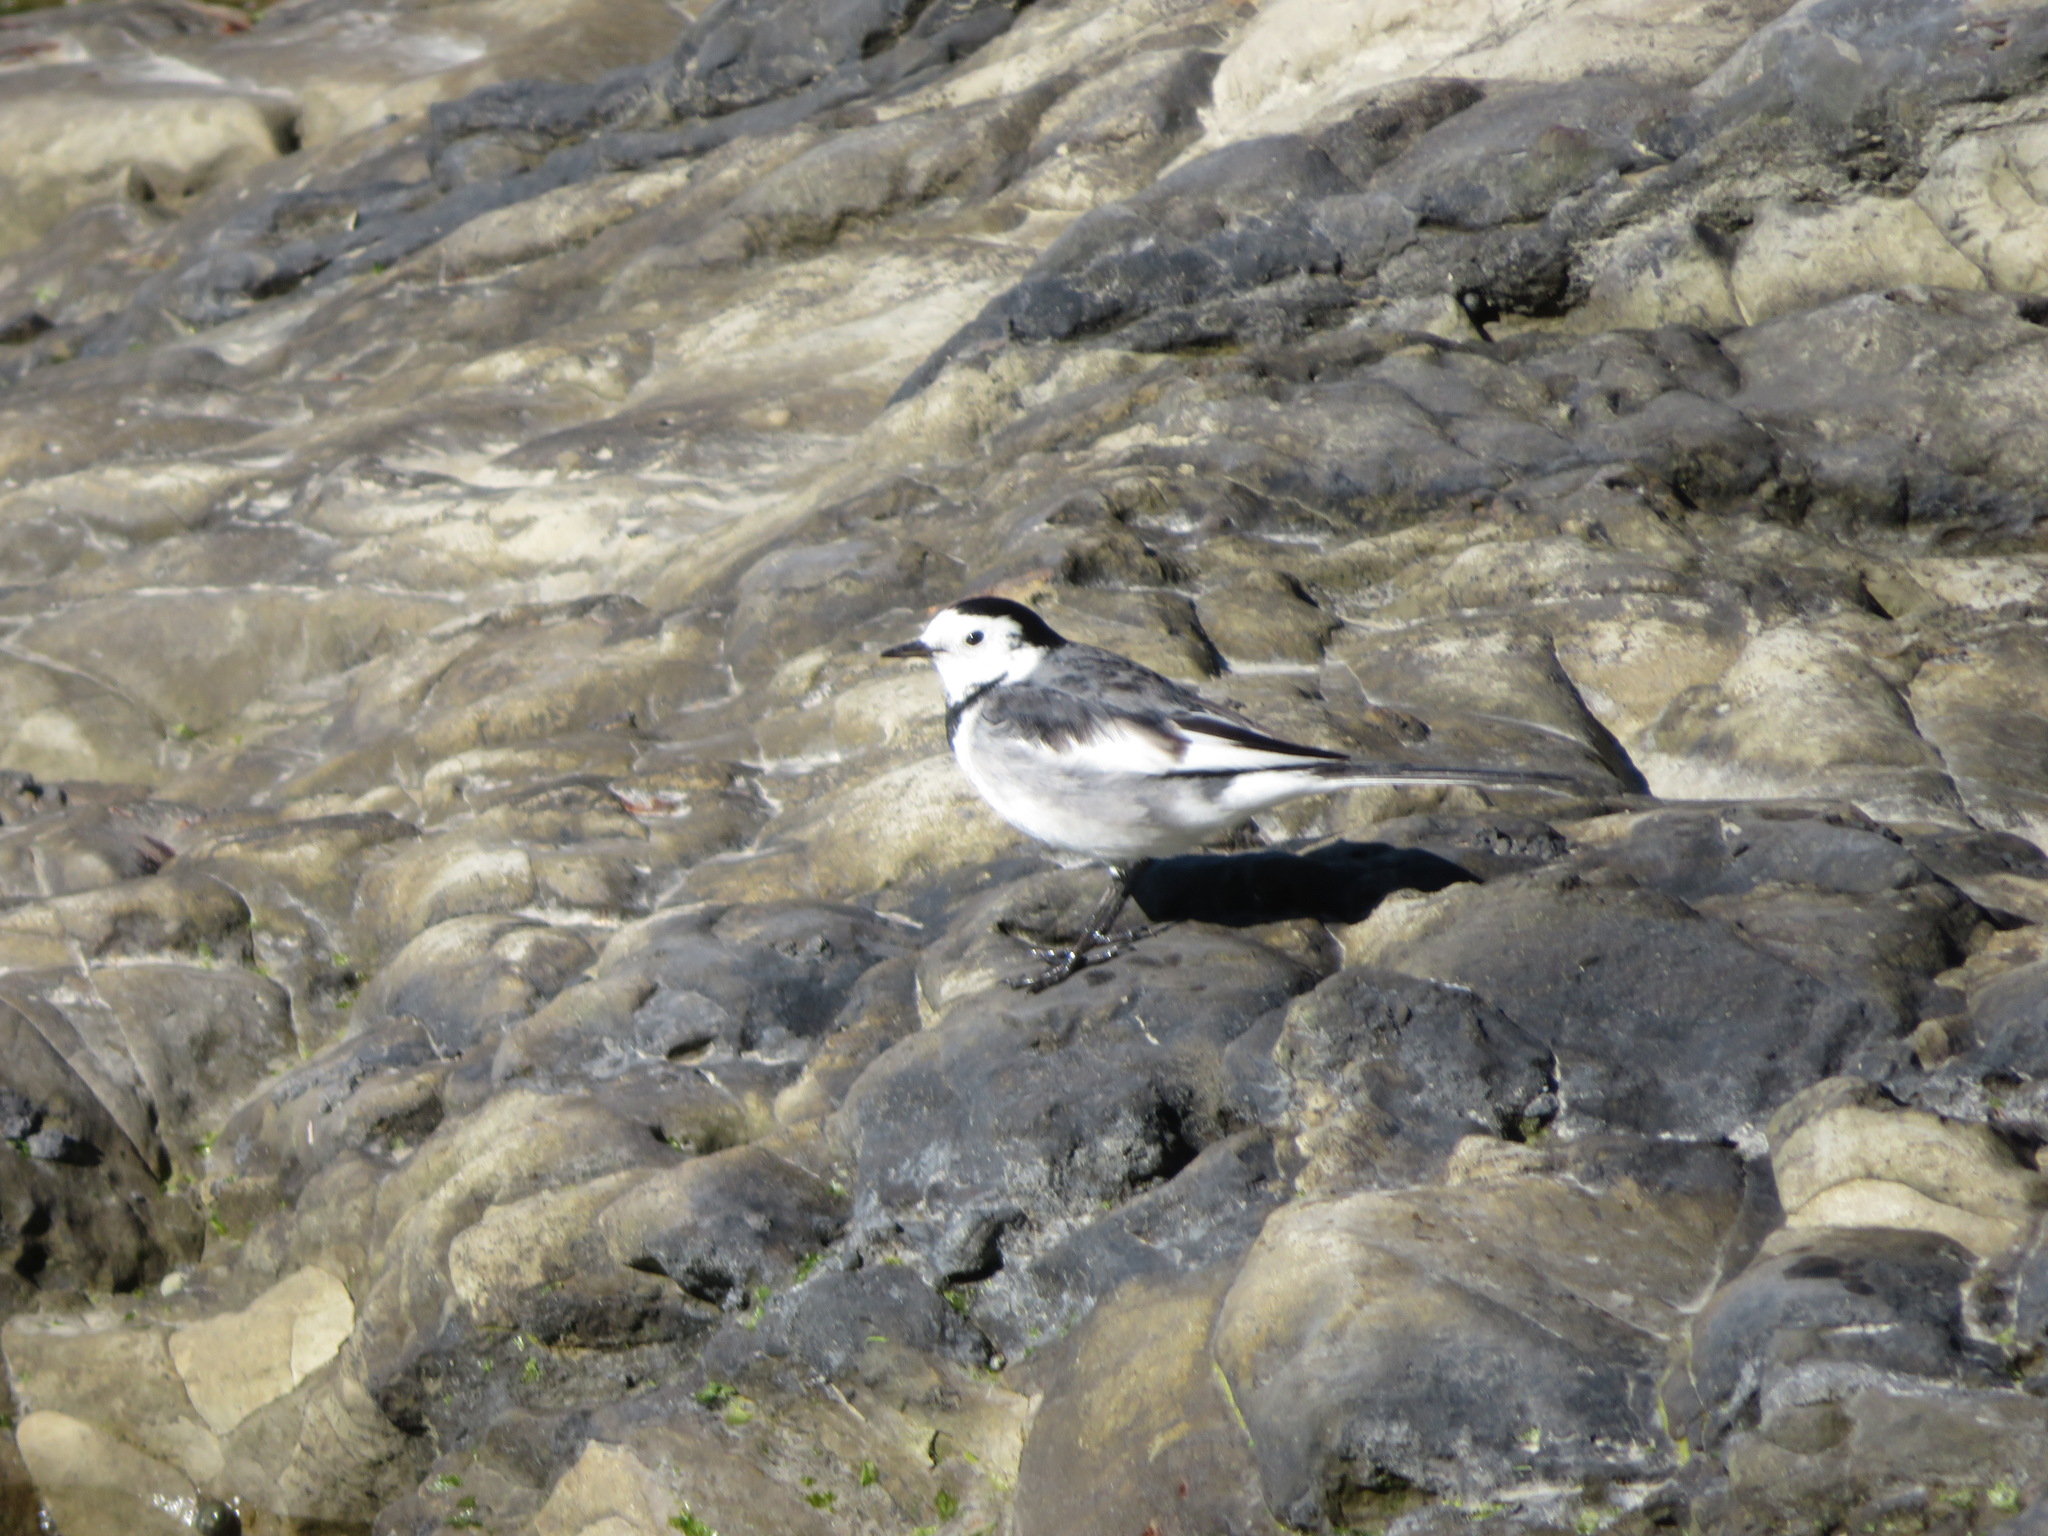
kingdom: Animalia
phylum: Chordata
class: Aves
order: Passeriformes
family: Motacillidae
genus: Motacilla
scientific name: Motacilla alba
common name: White wagtail
